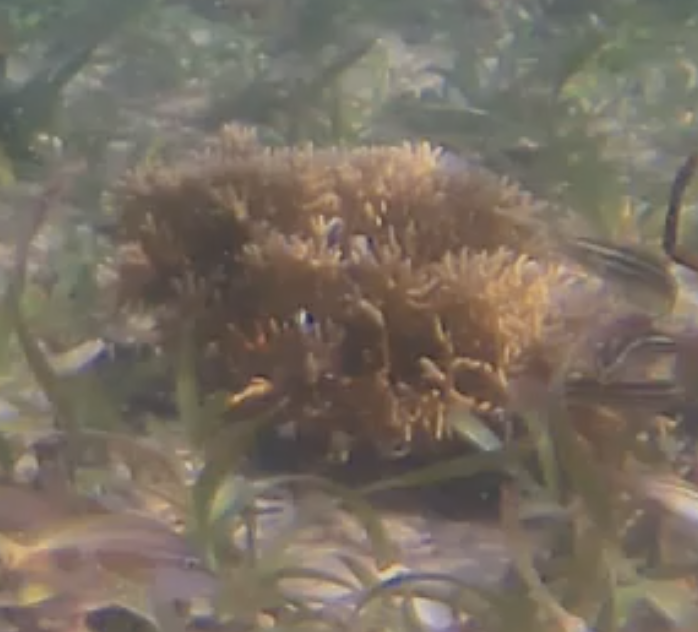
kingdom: Animalia
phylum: Cnidaria
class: Hydrozoa
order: Anthoathecata
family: Milleporidae
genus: Millepora
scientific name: Millepora alcicornis
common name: Branching fire coral
